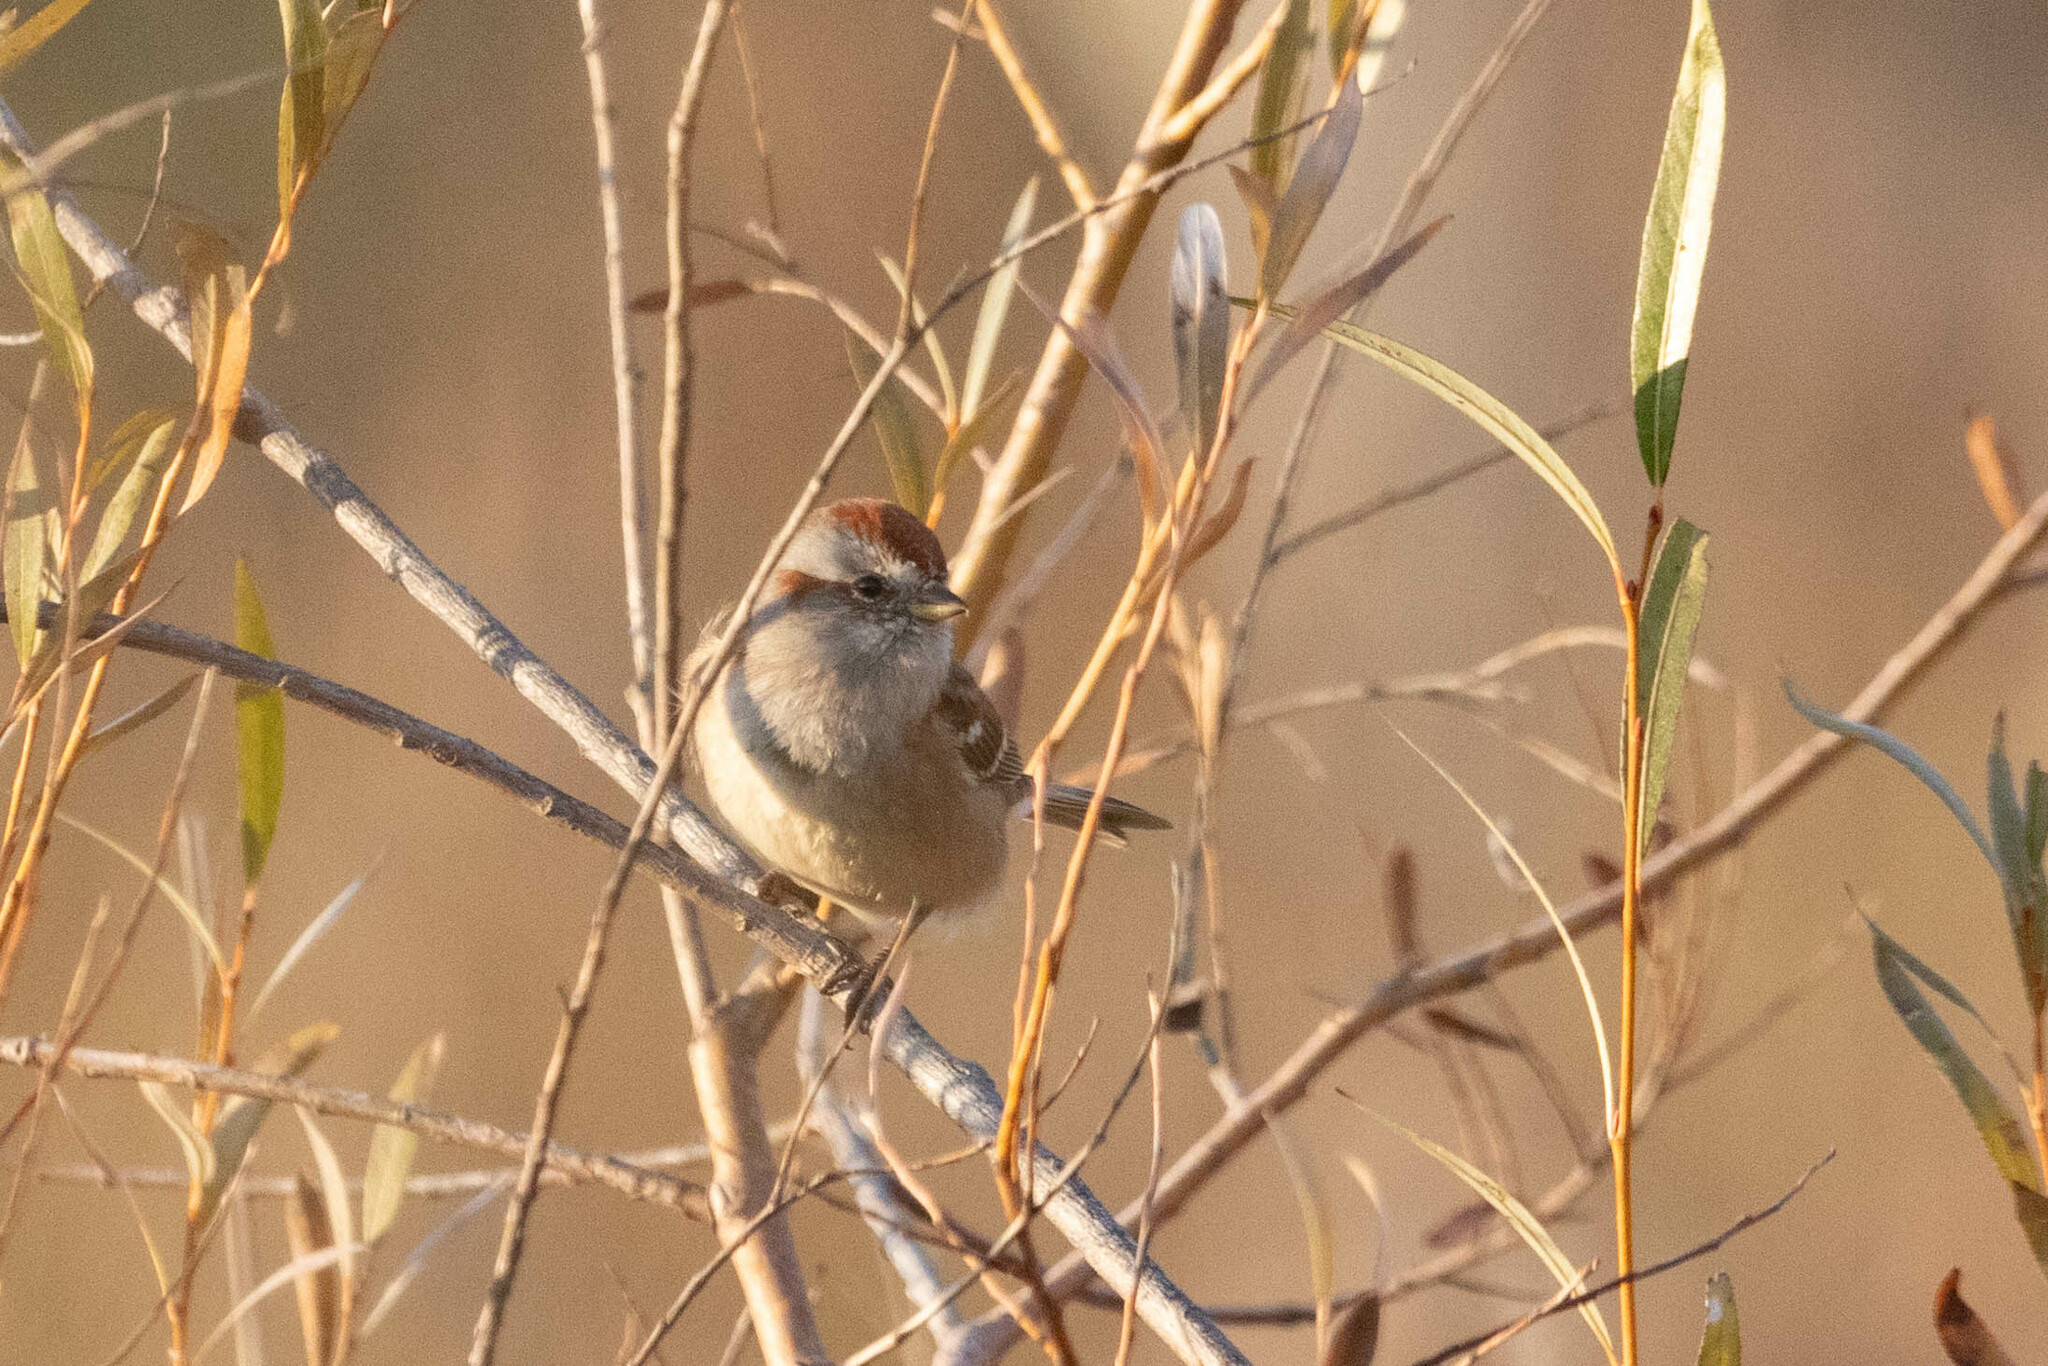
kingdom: Animalia
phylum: Chordata
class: Aves
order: Passeriformes
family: Passerellidae
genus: Spizelloides
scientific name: Spizelloides arborea
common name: American tree sparrow
